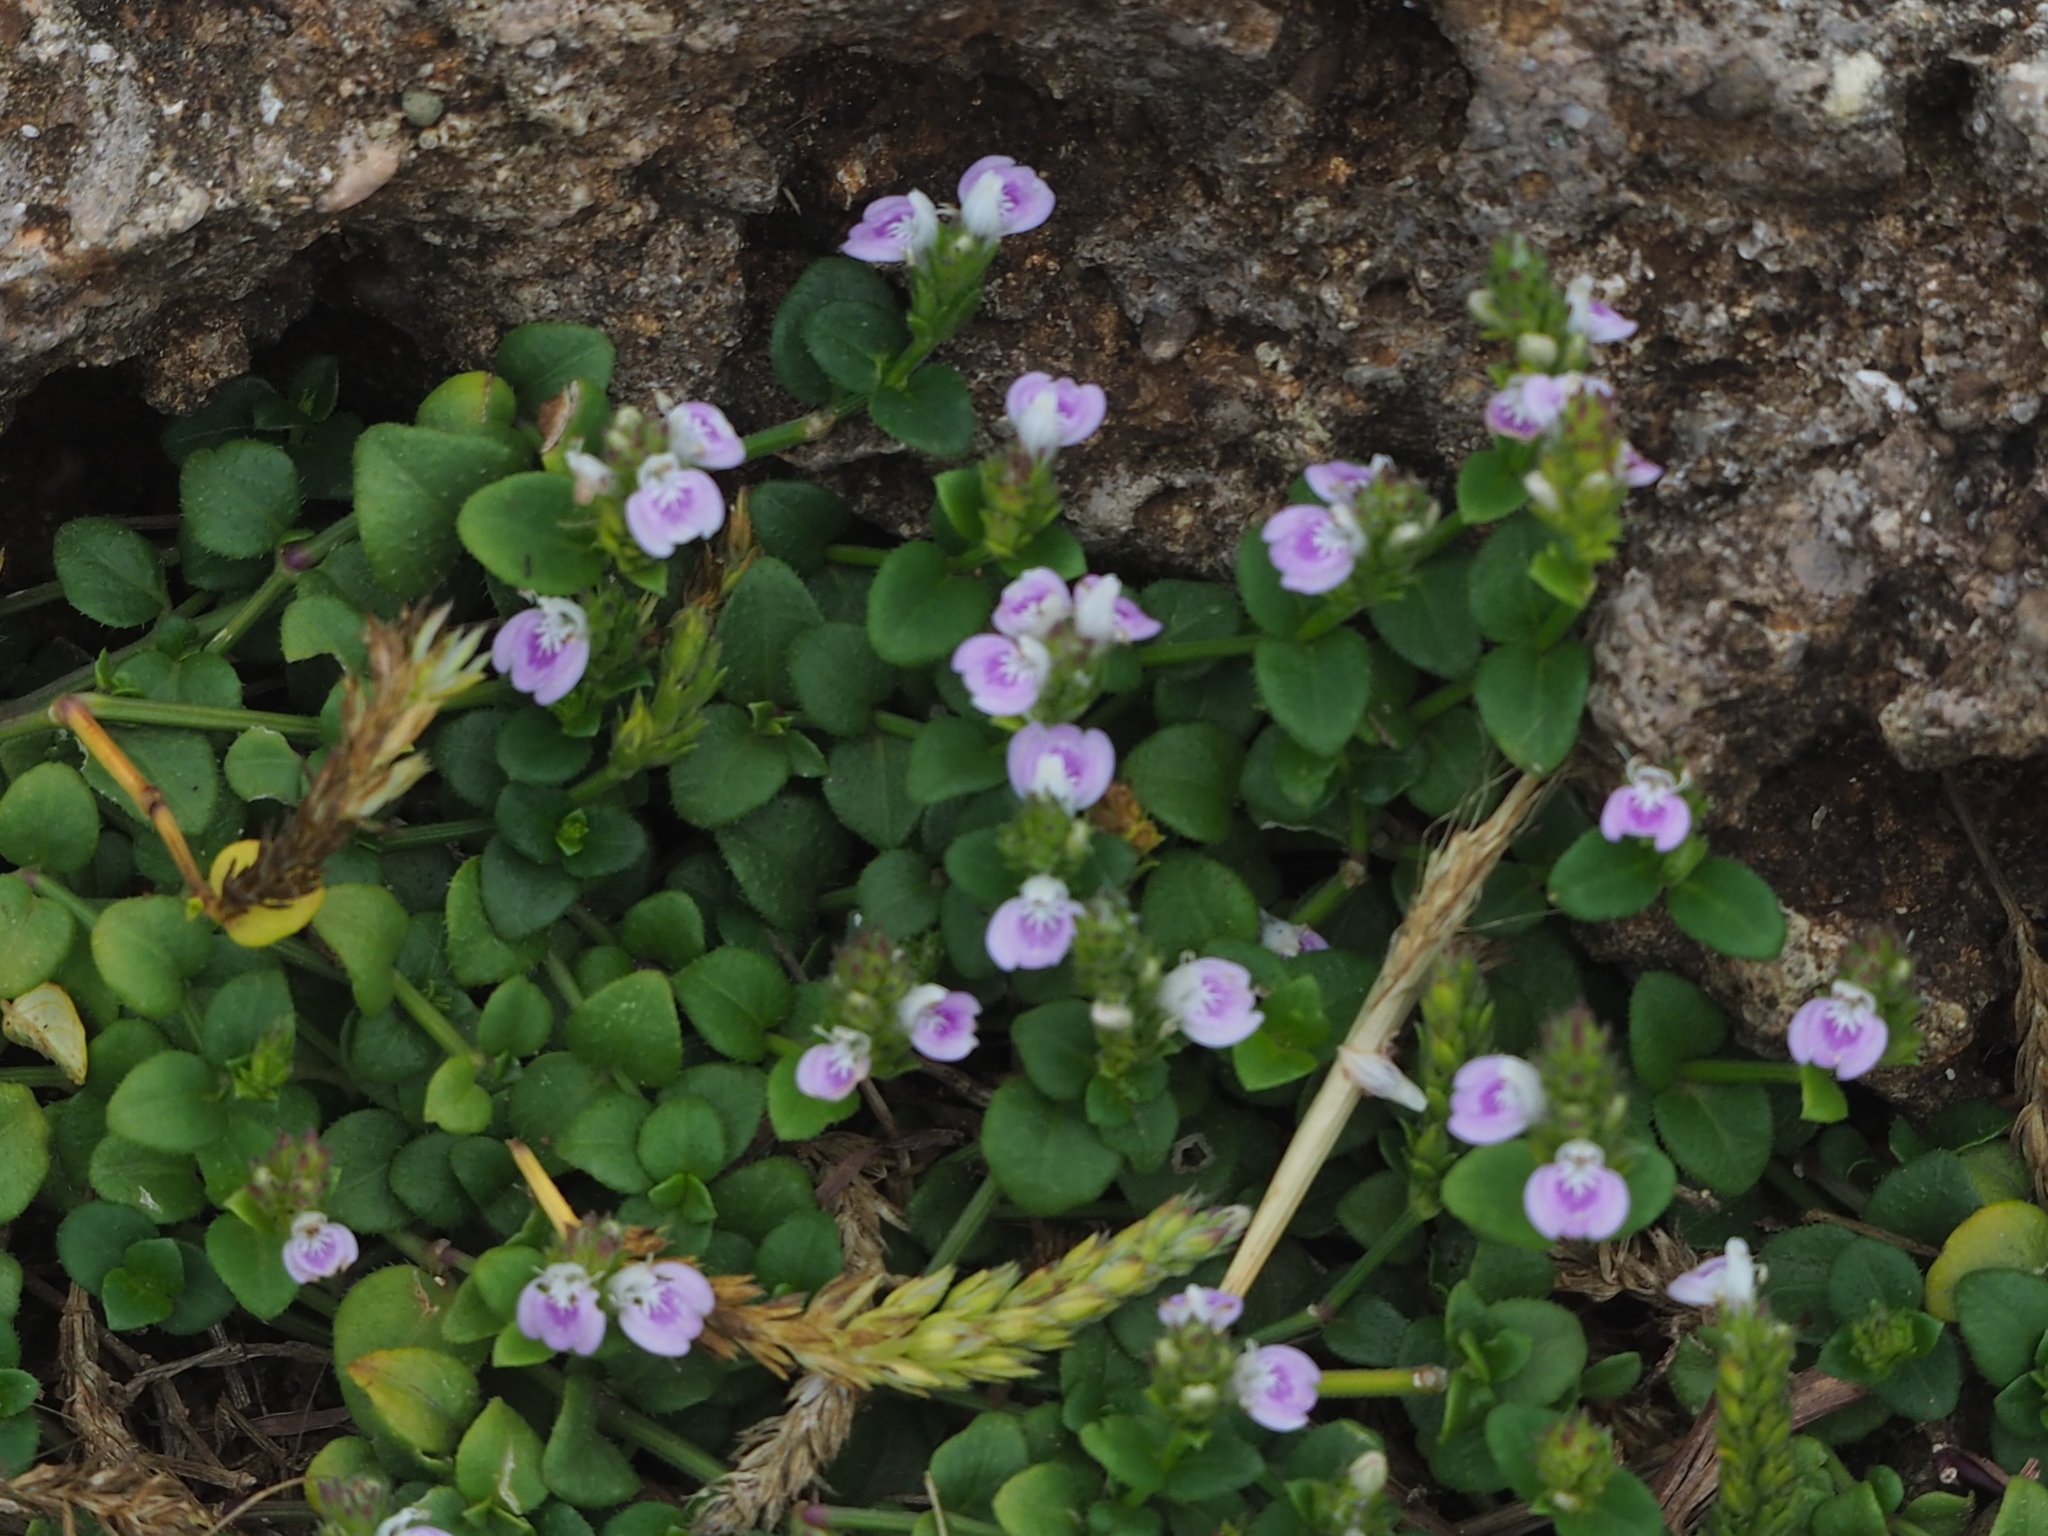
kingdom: Plantae
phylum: Tracheophyta
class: Magnoliopsida
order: Lamiales
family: Acanthaceae
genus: Rostellularia
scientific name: Rostellularia hayatae
